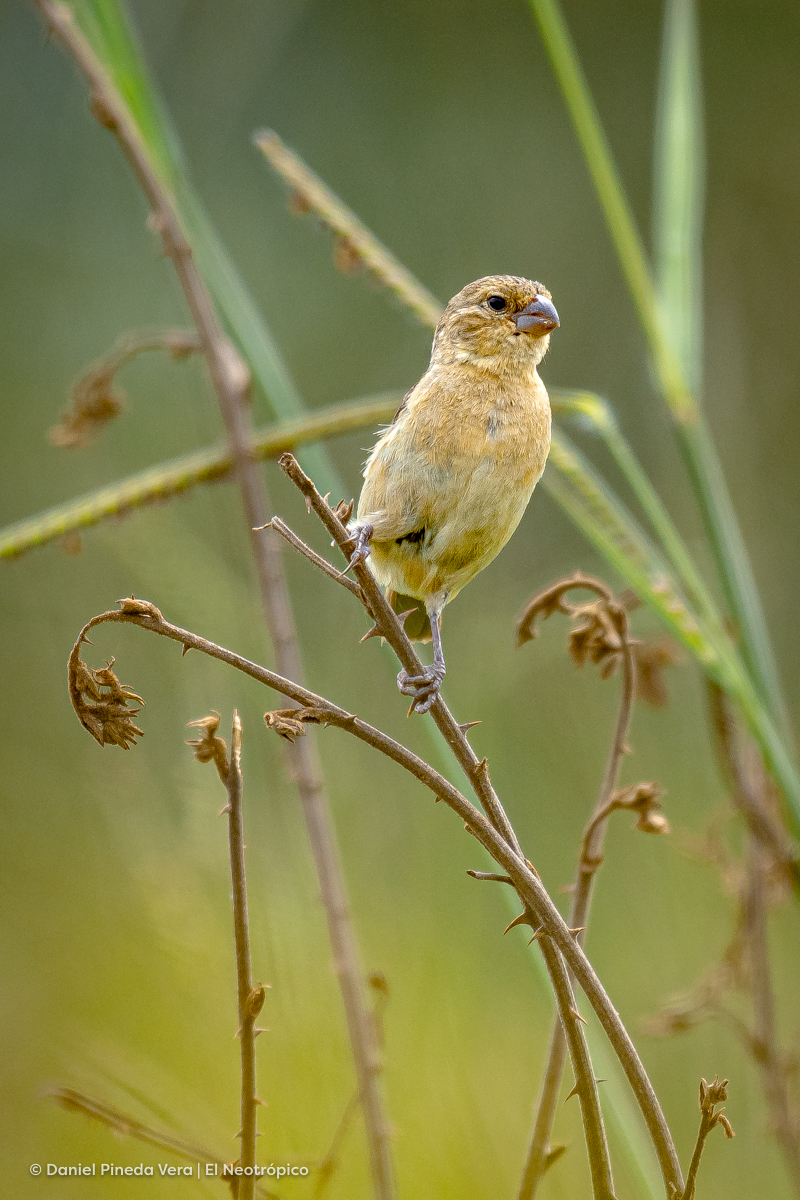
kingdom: Animalia
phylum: Chordata
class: Aves
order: Passeriformes
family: Thraupidae
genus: Sporophila
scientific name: Sporophila morelleti
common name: Morelet's seedeater
